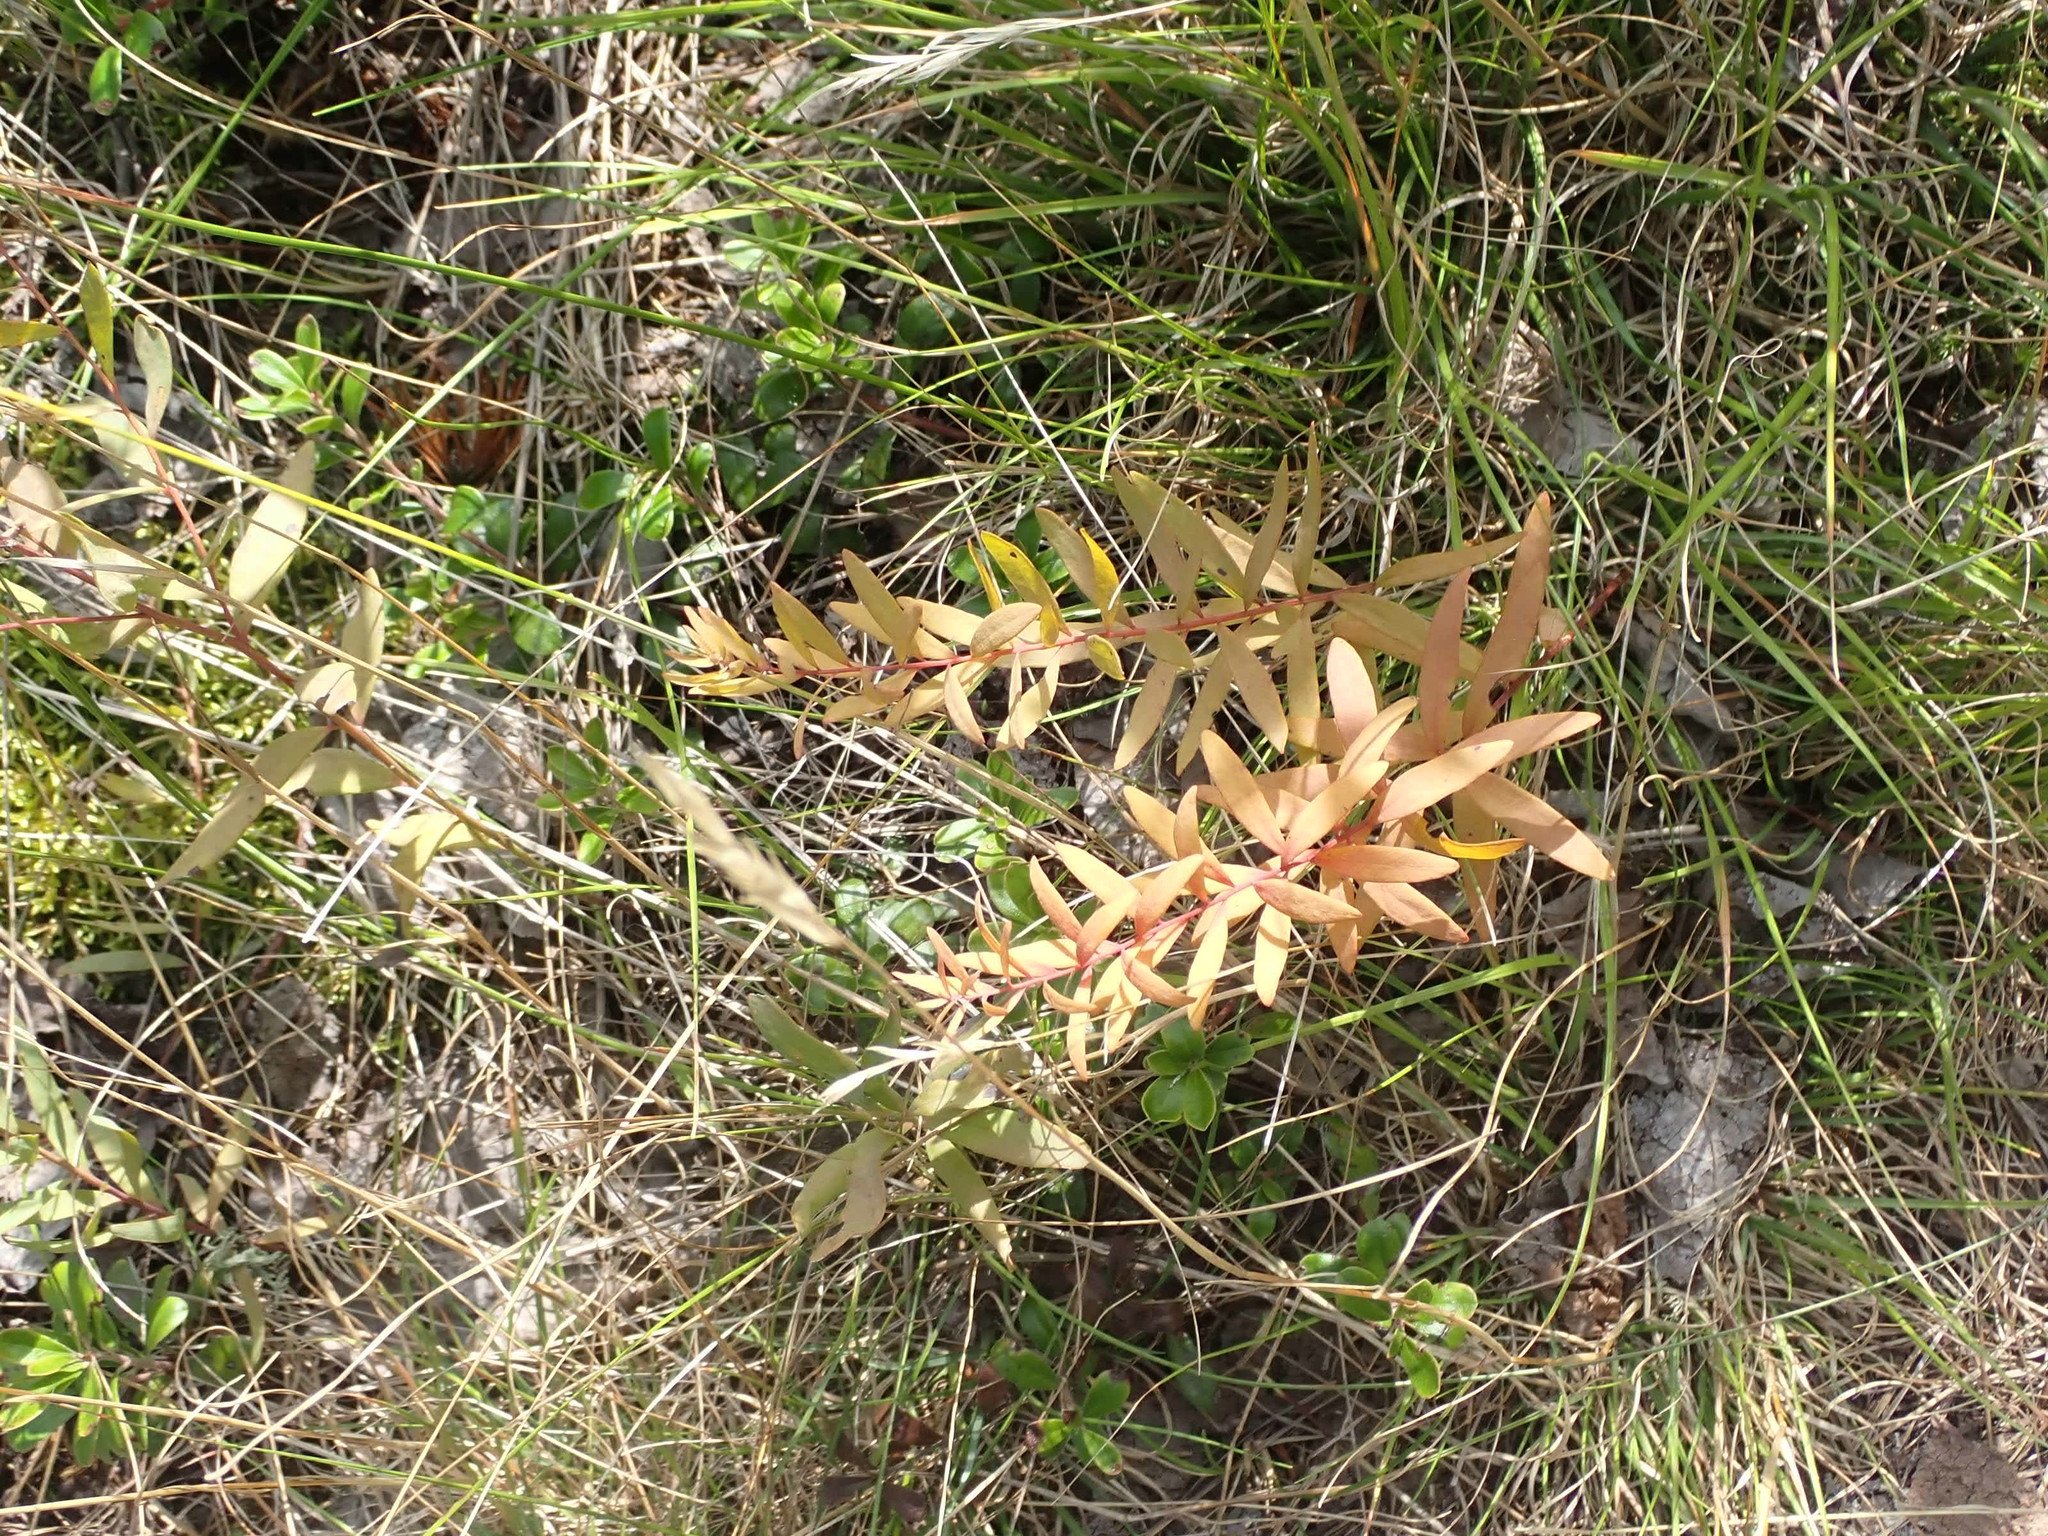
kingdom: Plantae
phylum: Tracheophyta
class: Magnoliopsida
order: Santalales
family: Comandraceae
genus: Comandra
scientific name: Comandra umbellata
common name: Bastard toadflax
